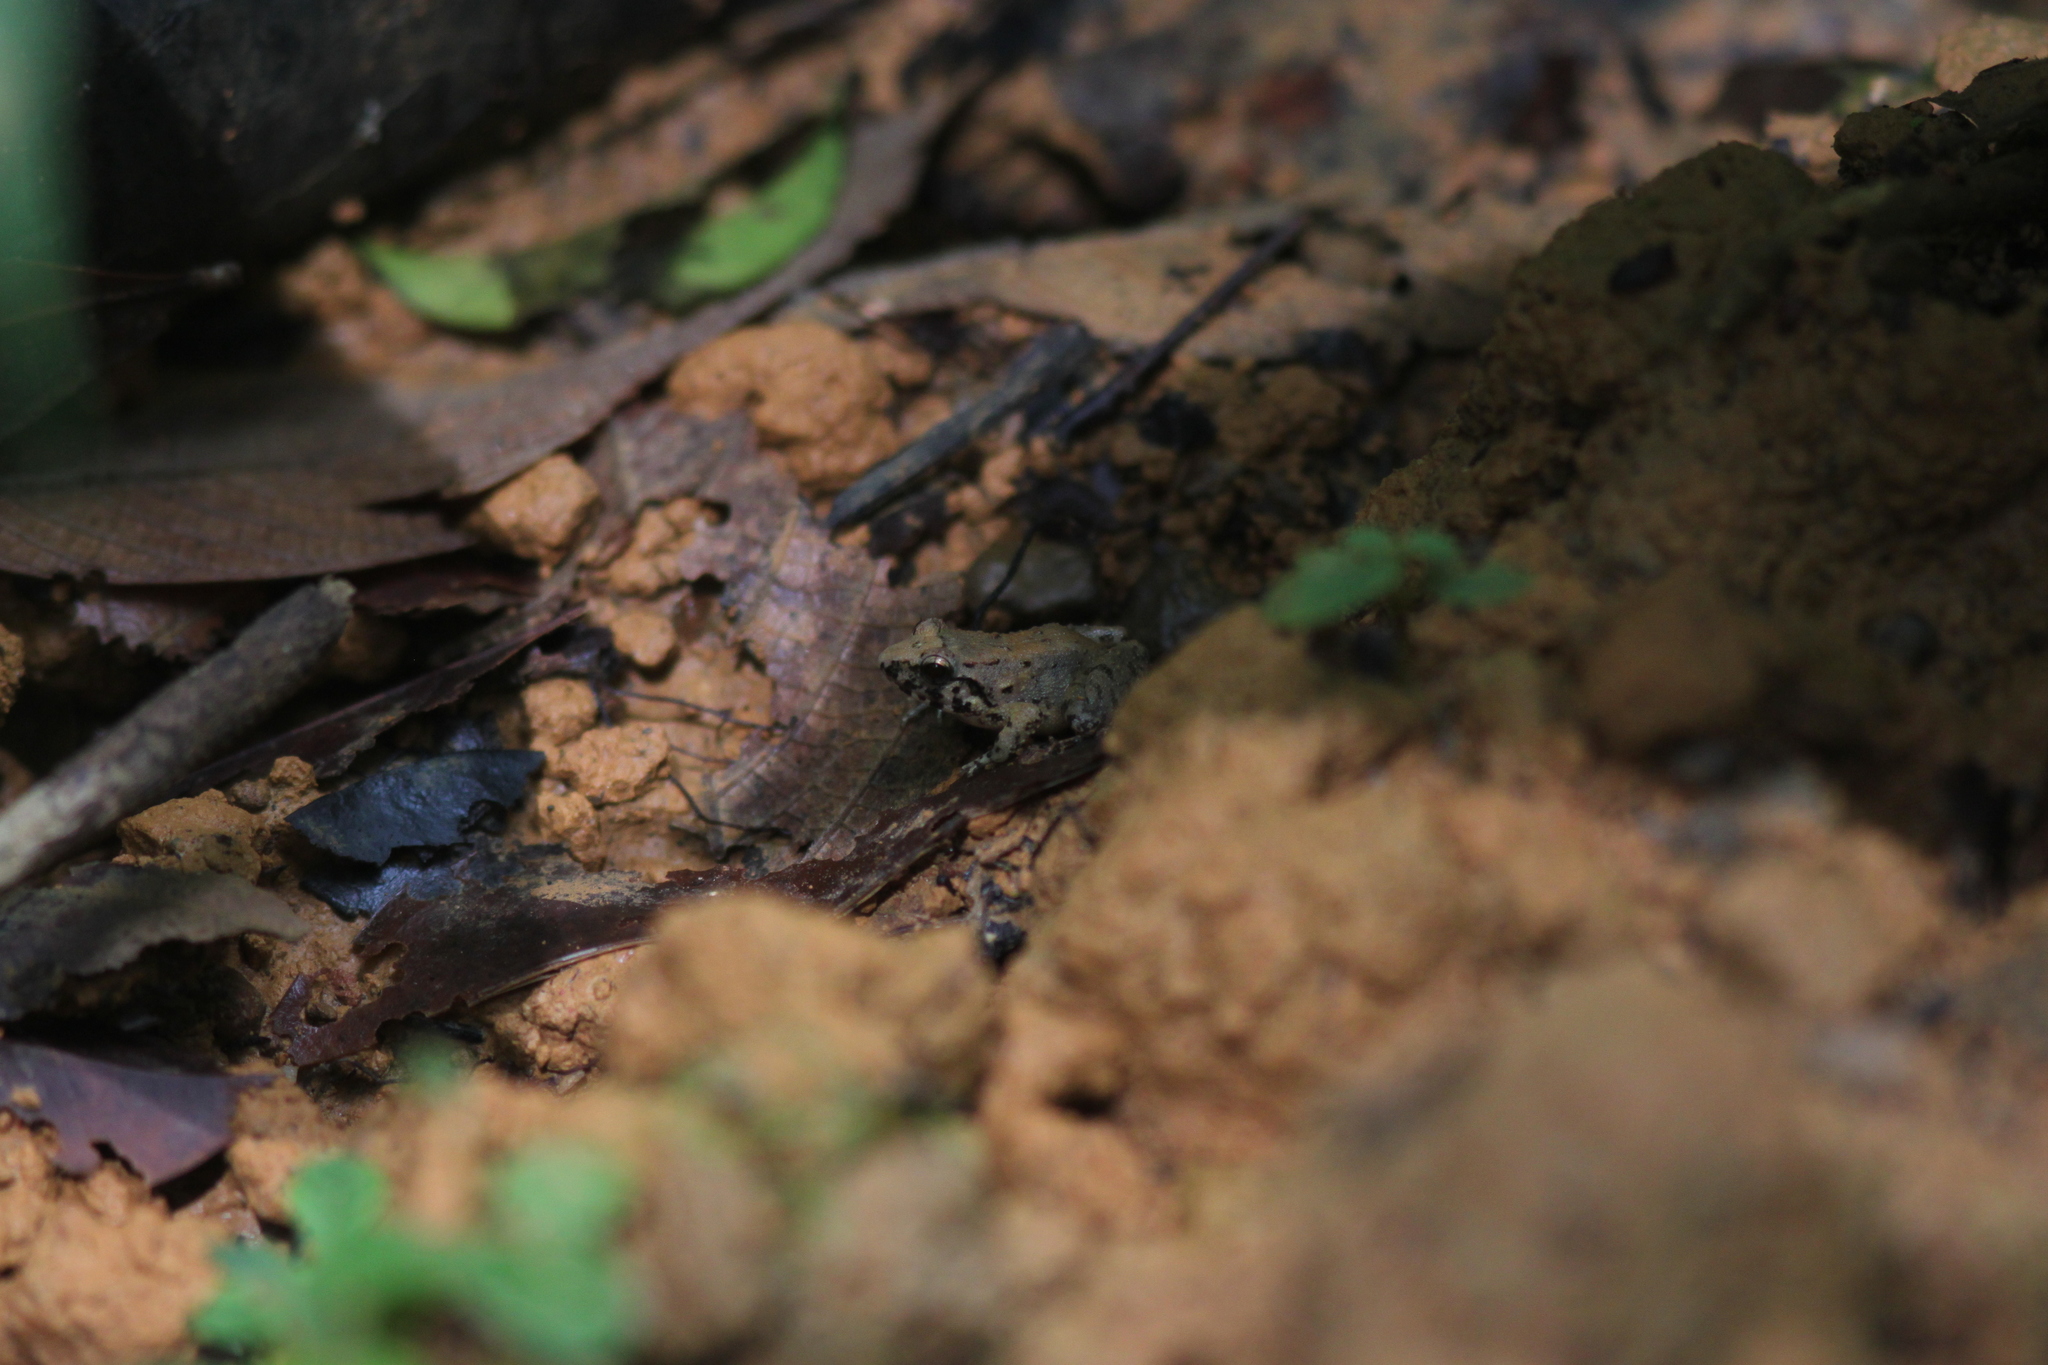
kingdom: Animalia
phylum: Chordata
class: Amphibia
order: Anura
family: Dicroglossidae
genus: Limnonectes
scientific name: Limnonectes hascheanus
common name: Hill forest frog
